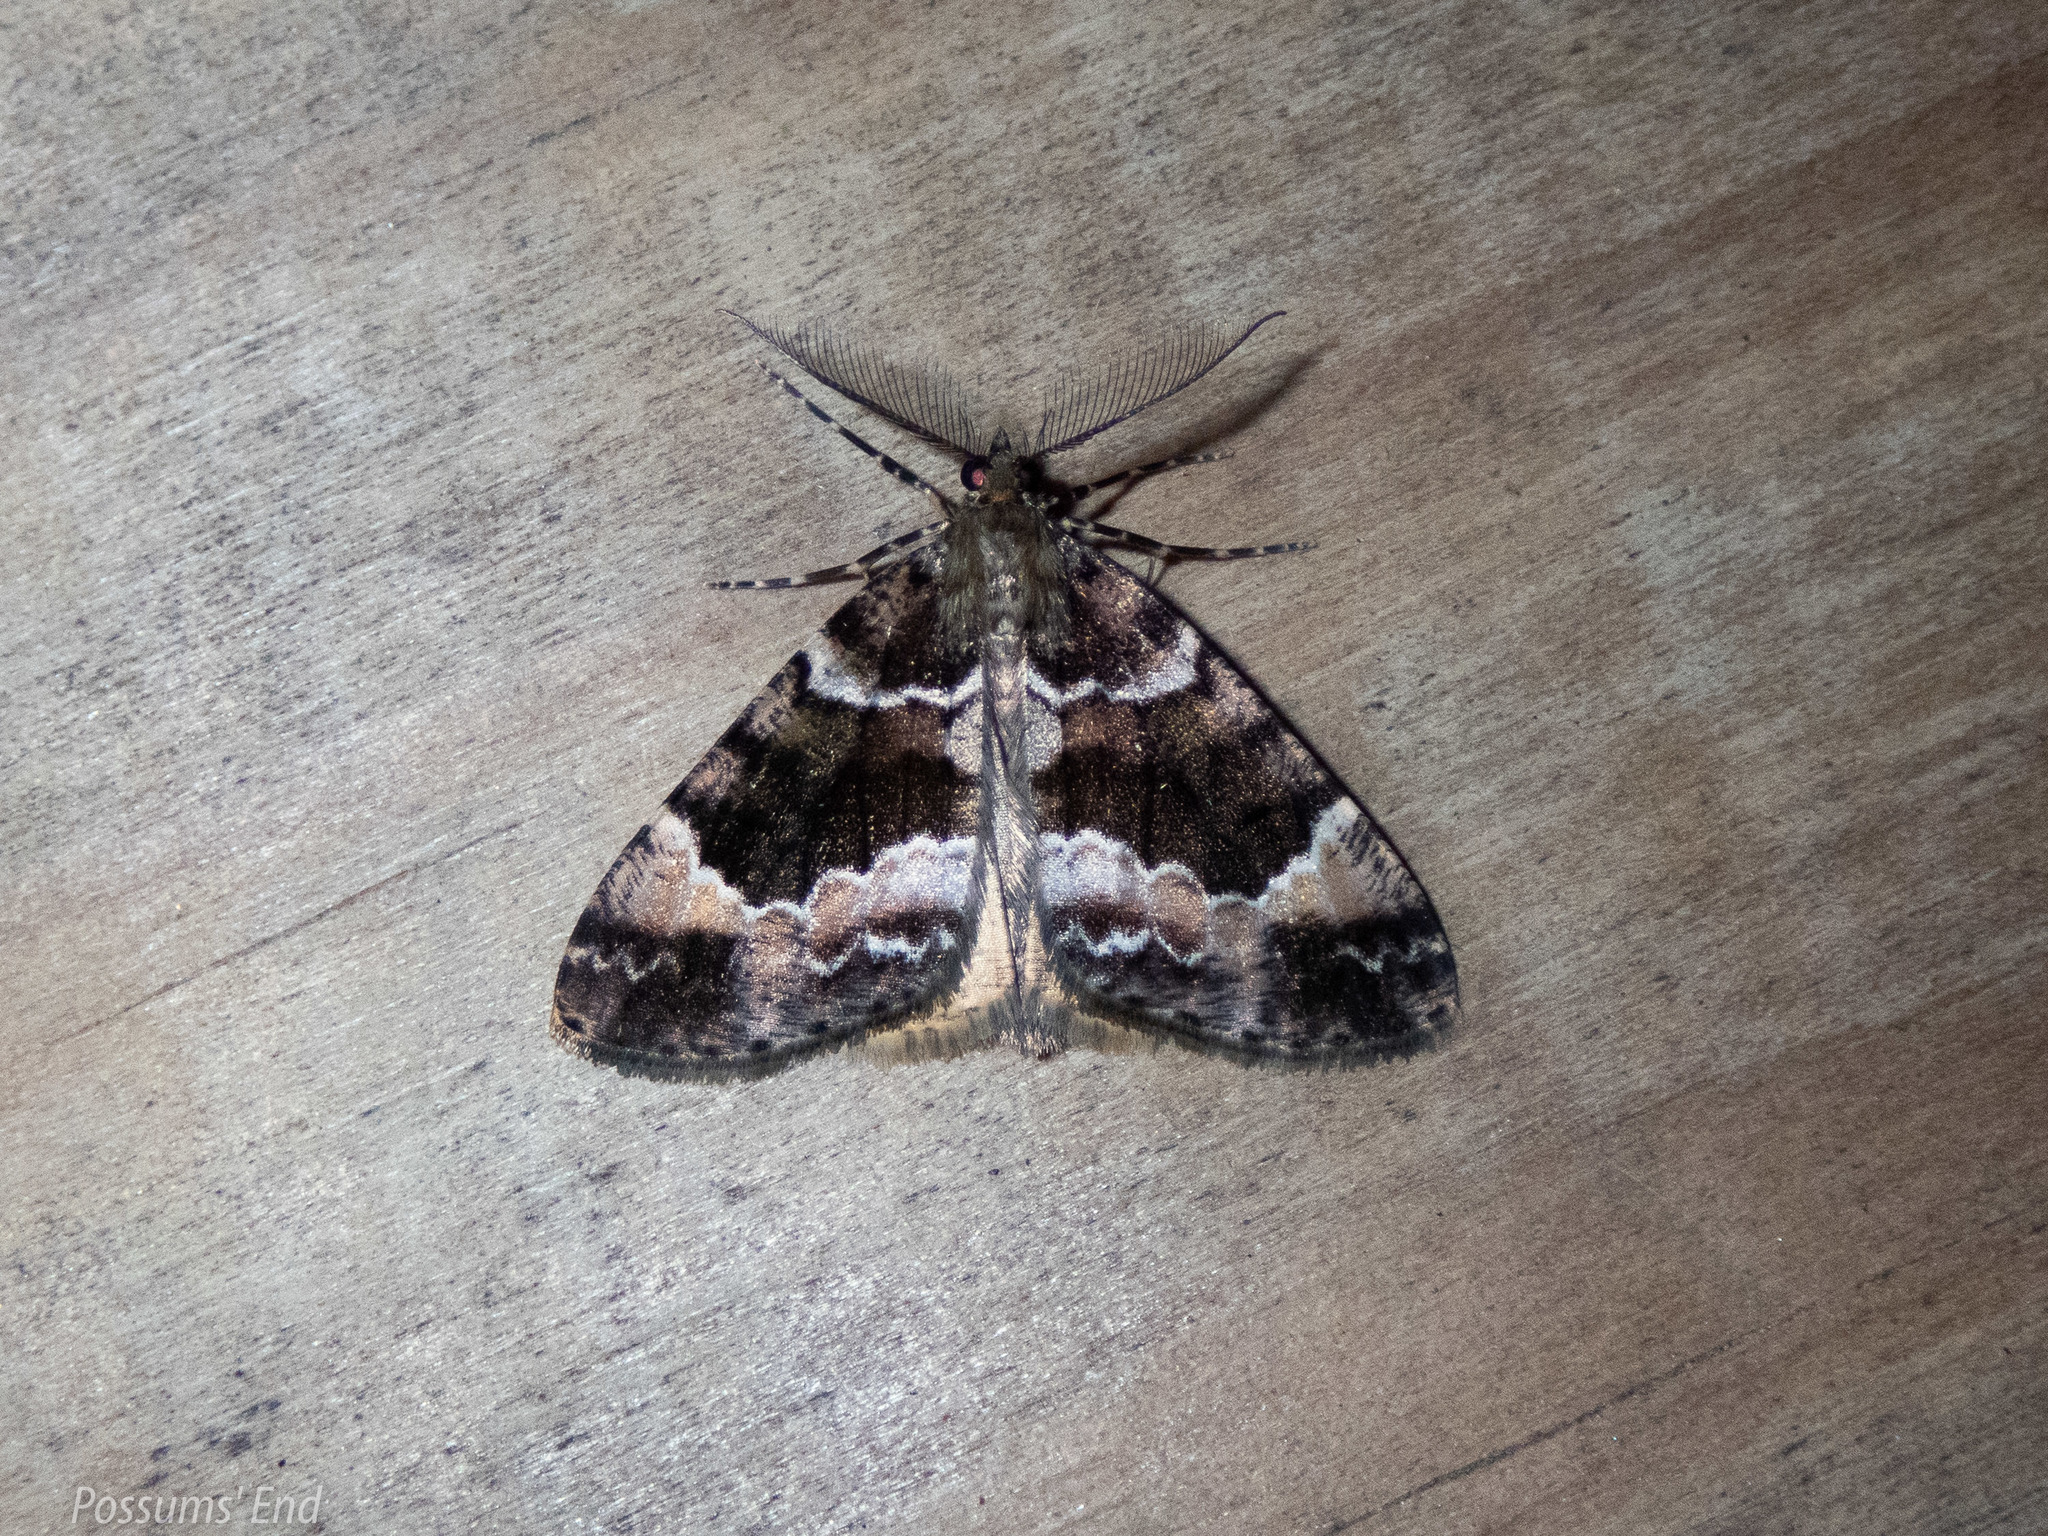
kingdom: Animalia
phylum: Arthropoda
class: Insecta
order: Lepidoptera
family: Geometridae
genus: Pseudocoremia
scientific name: Pseudocoremia productata
